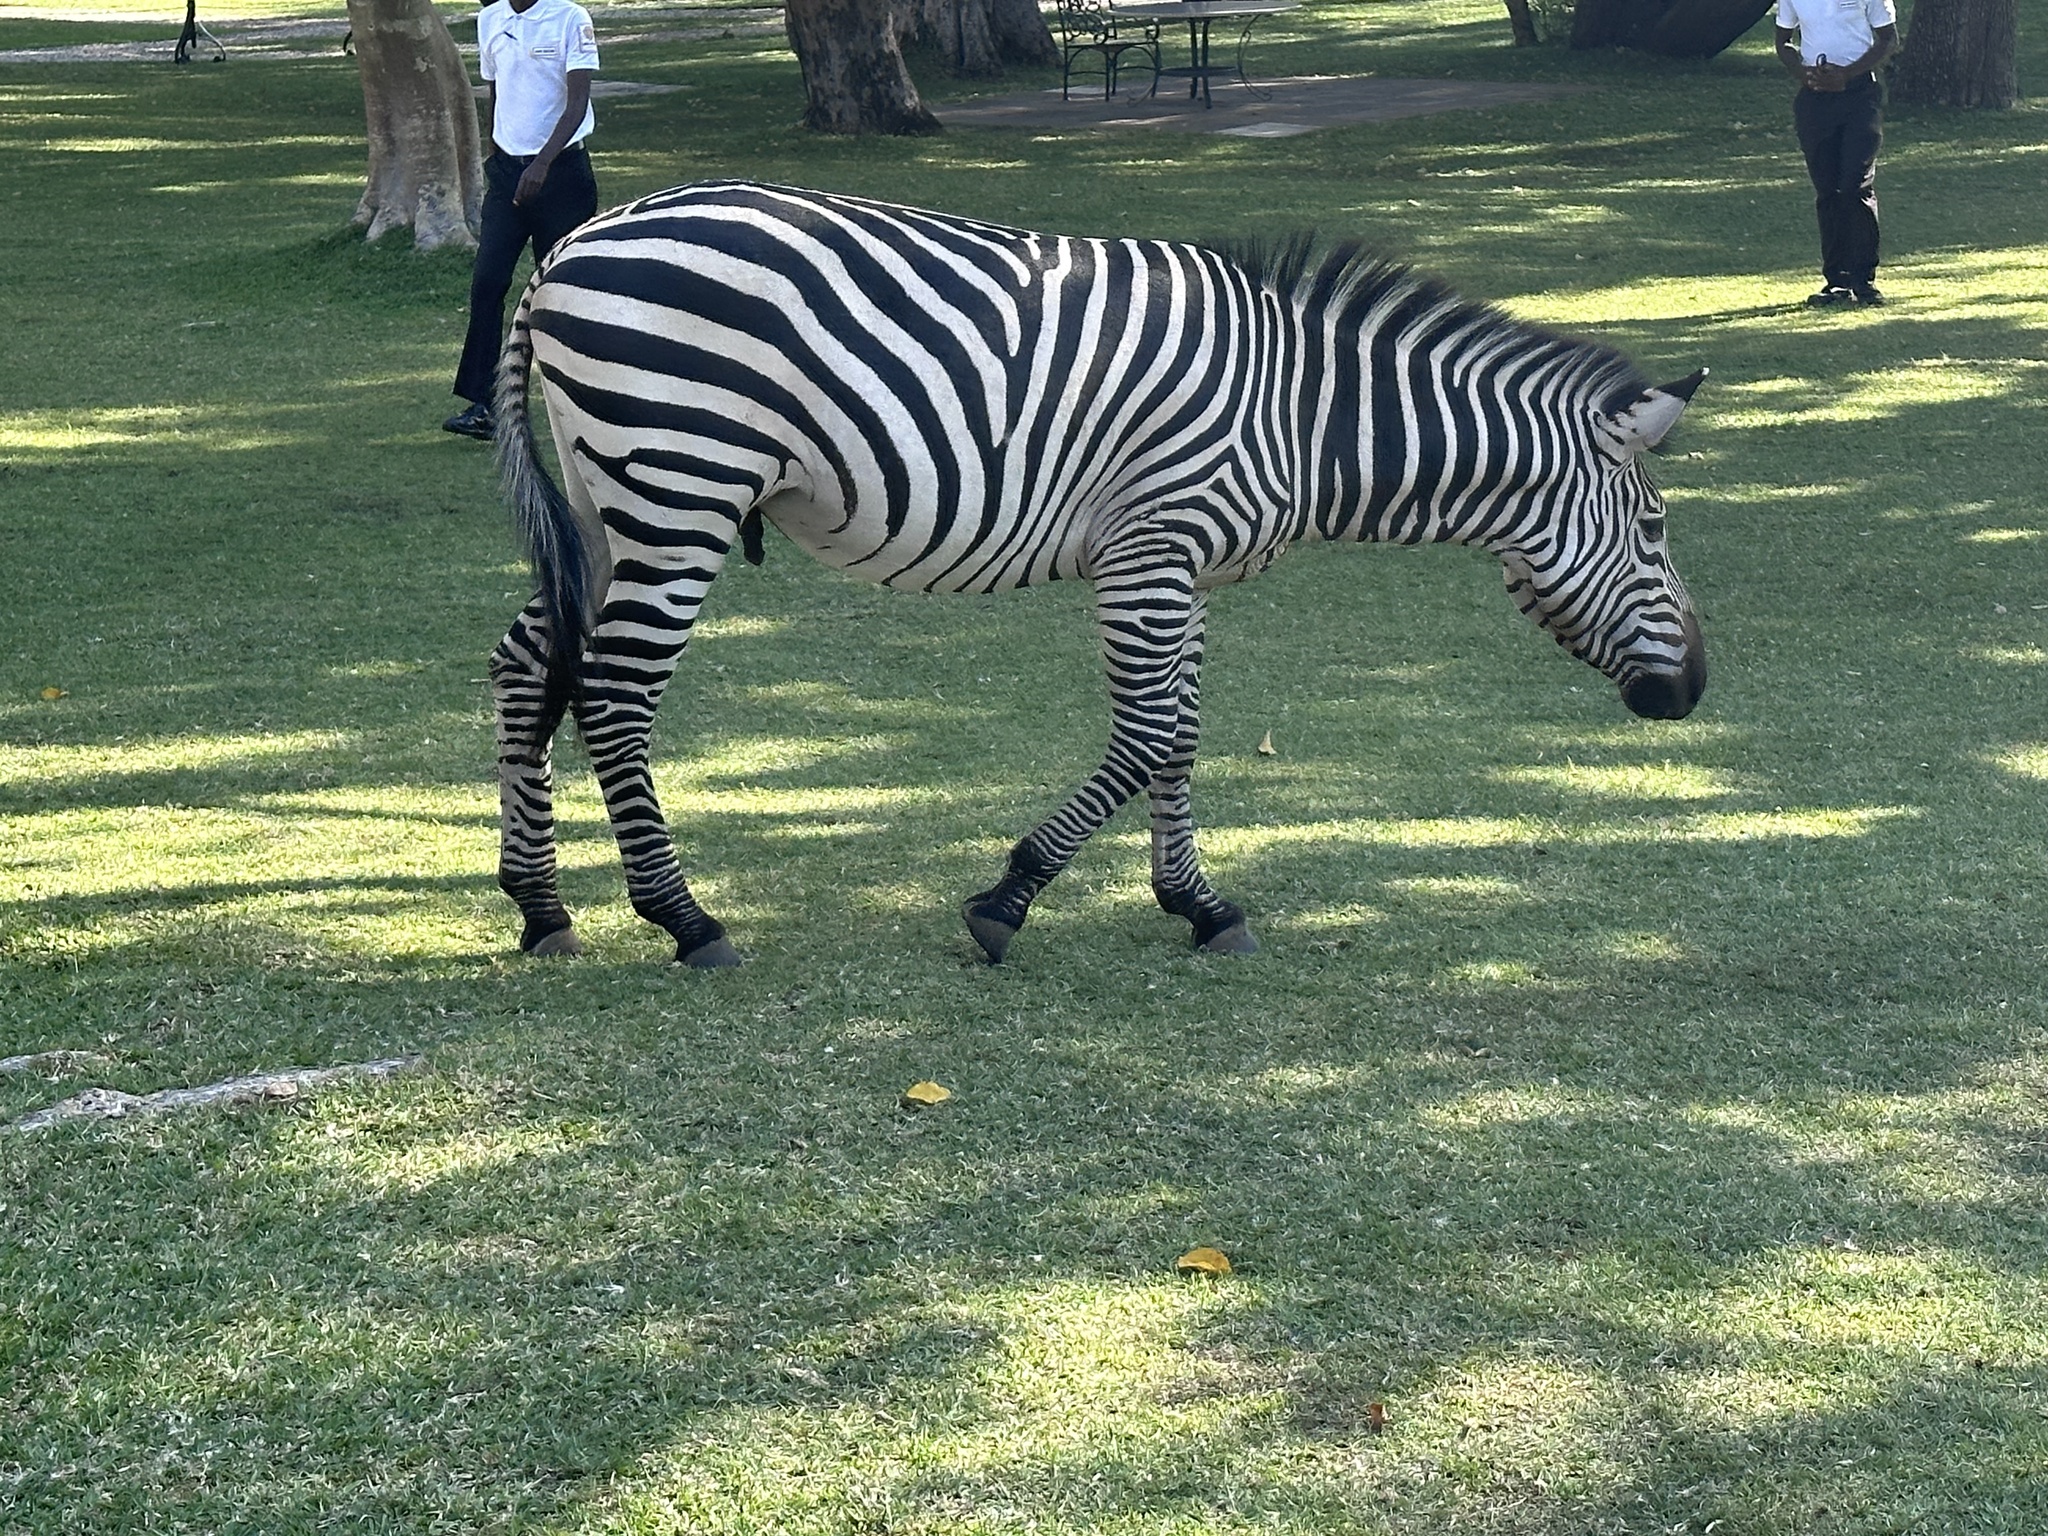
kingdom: Animalia
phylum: Chordata
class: Mammalia
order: Perissodactyla
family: Equidae
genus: Equus
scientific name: Equus quagga
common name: Plains zebra
